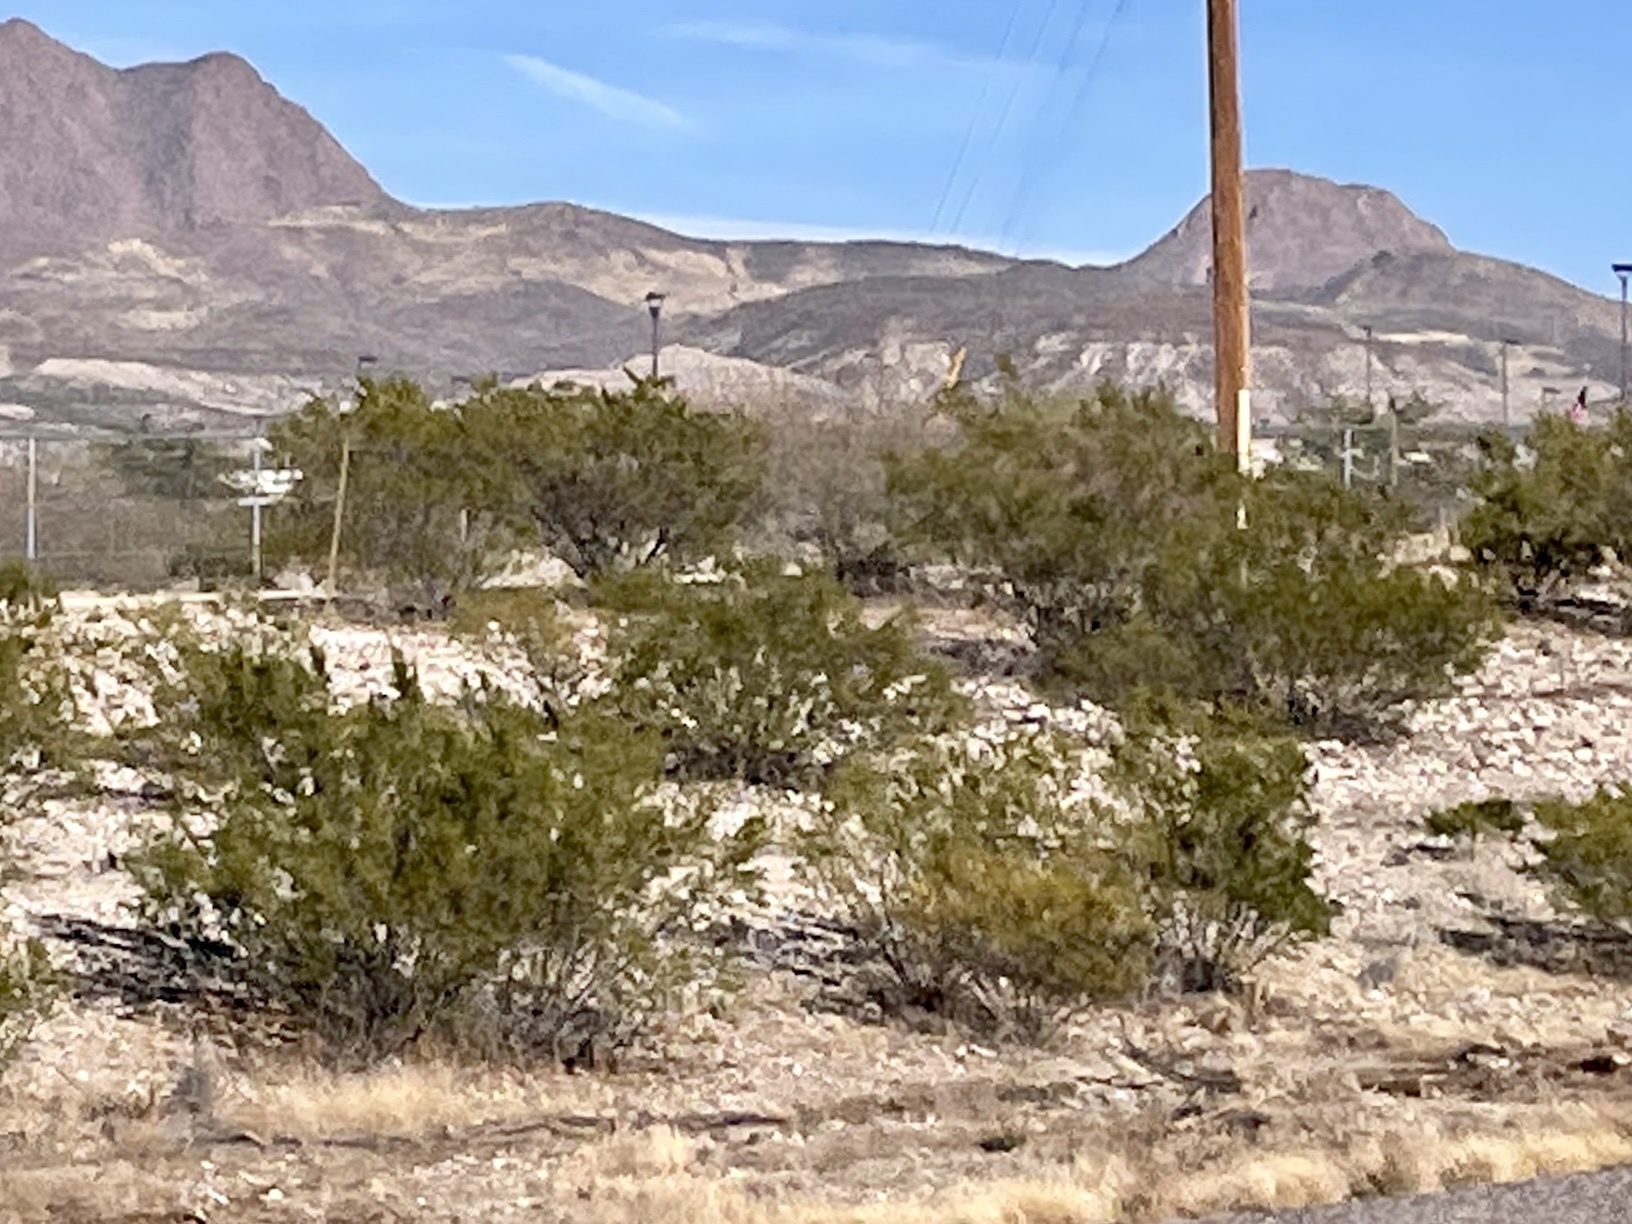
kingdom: Plantae
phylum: Tracheophyta
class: Magnoliopsida
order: Zygophyllales
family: Zygophyllaceae
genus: Larrea
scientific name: Larrea tridentata
